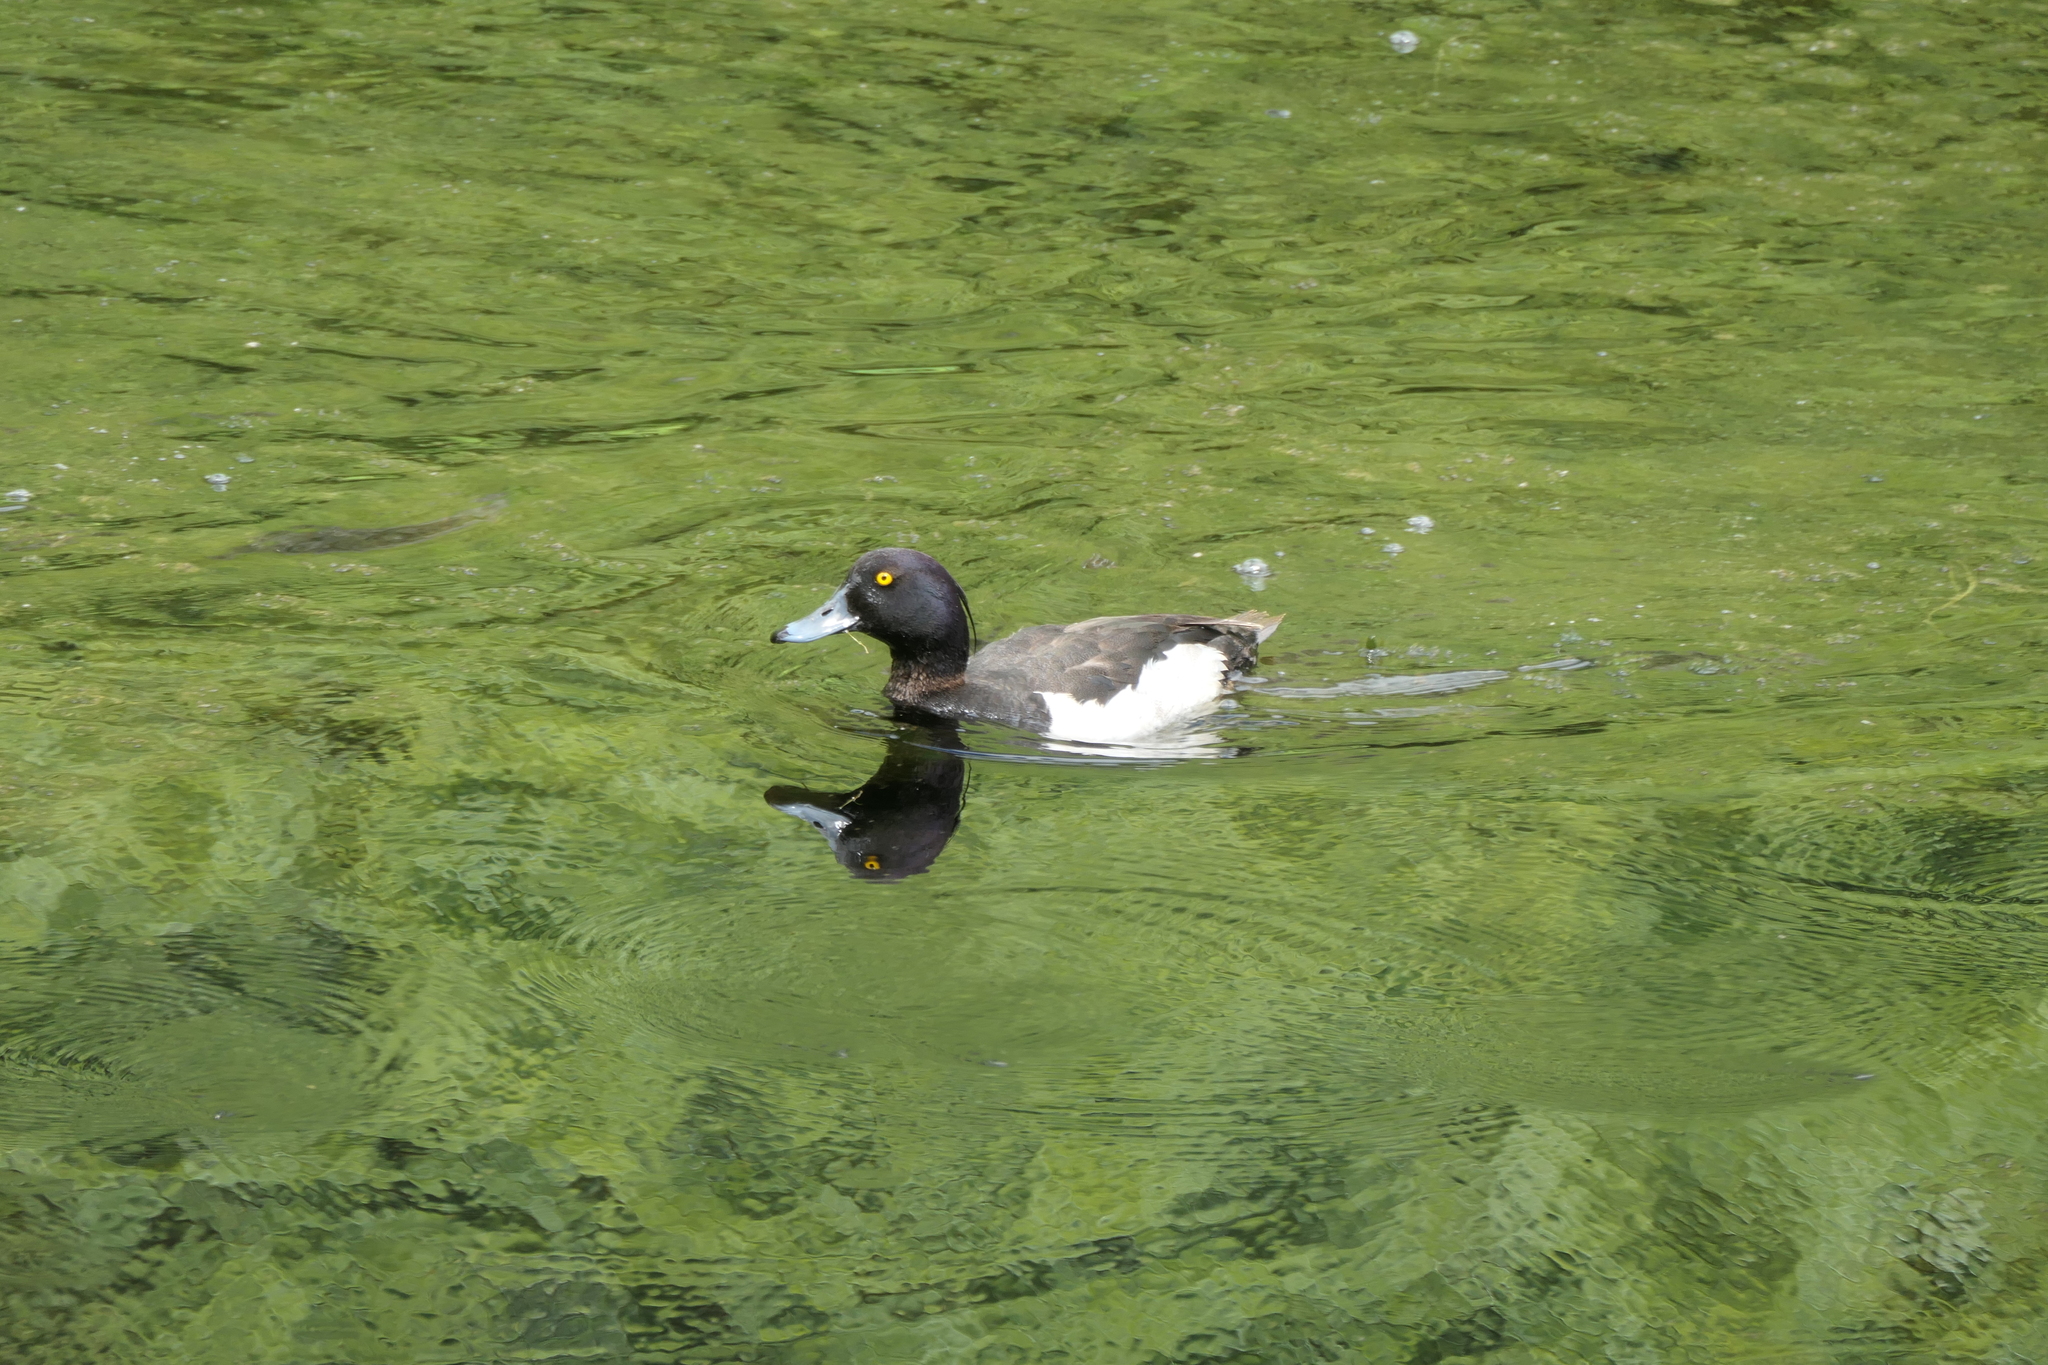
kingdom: Animalia
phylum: Chordata
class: Aves
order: Anseriformes
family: Anatidae
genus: Aythya
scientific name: Aythya fuligula
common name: Tufted duck
